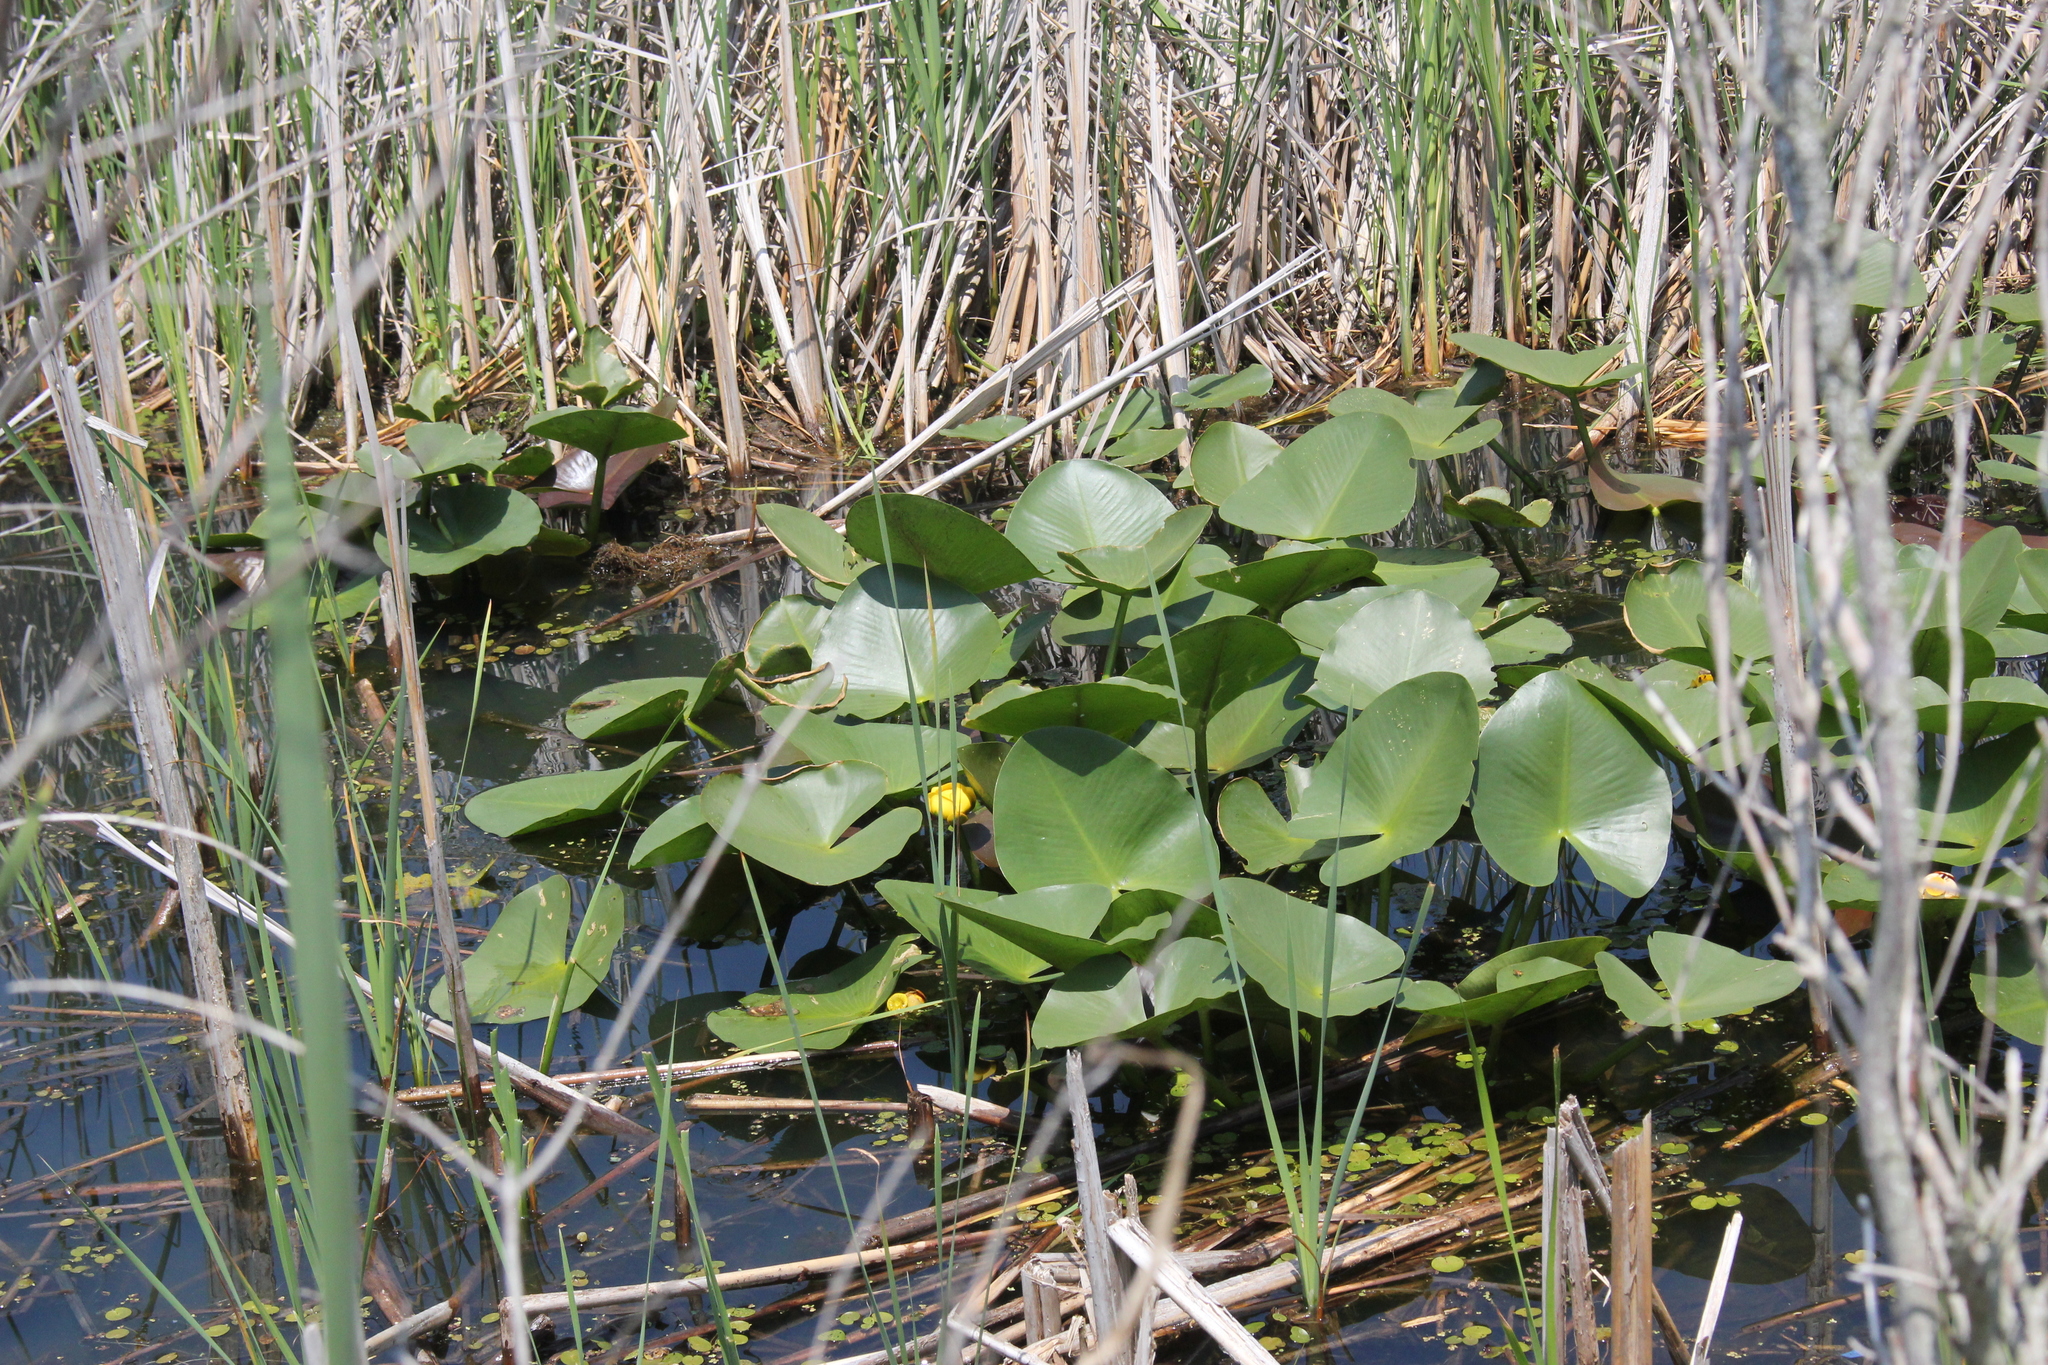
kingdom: Plantae
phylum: Tracheophyta
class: Magnoliopsida
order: Nymphaeales
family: Nymphaeaceae
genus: Nuphar
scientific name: Nuphar advena
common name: Spatter-dock
